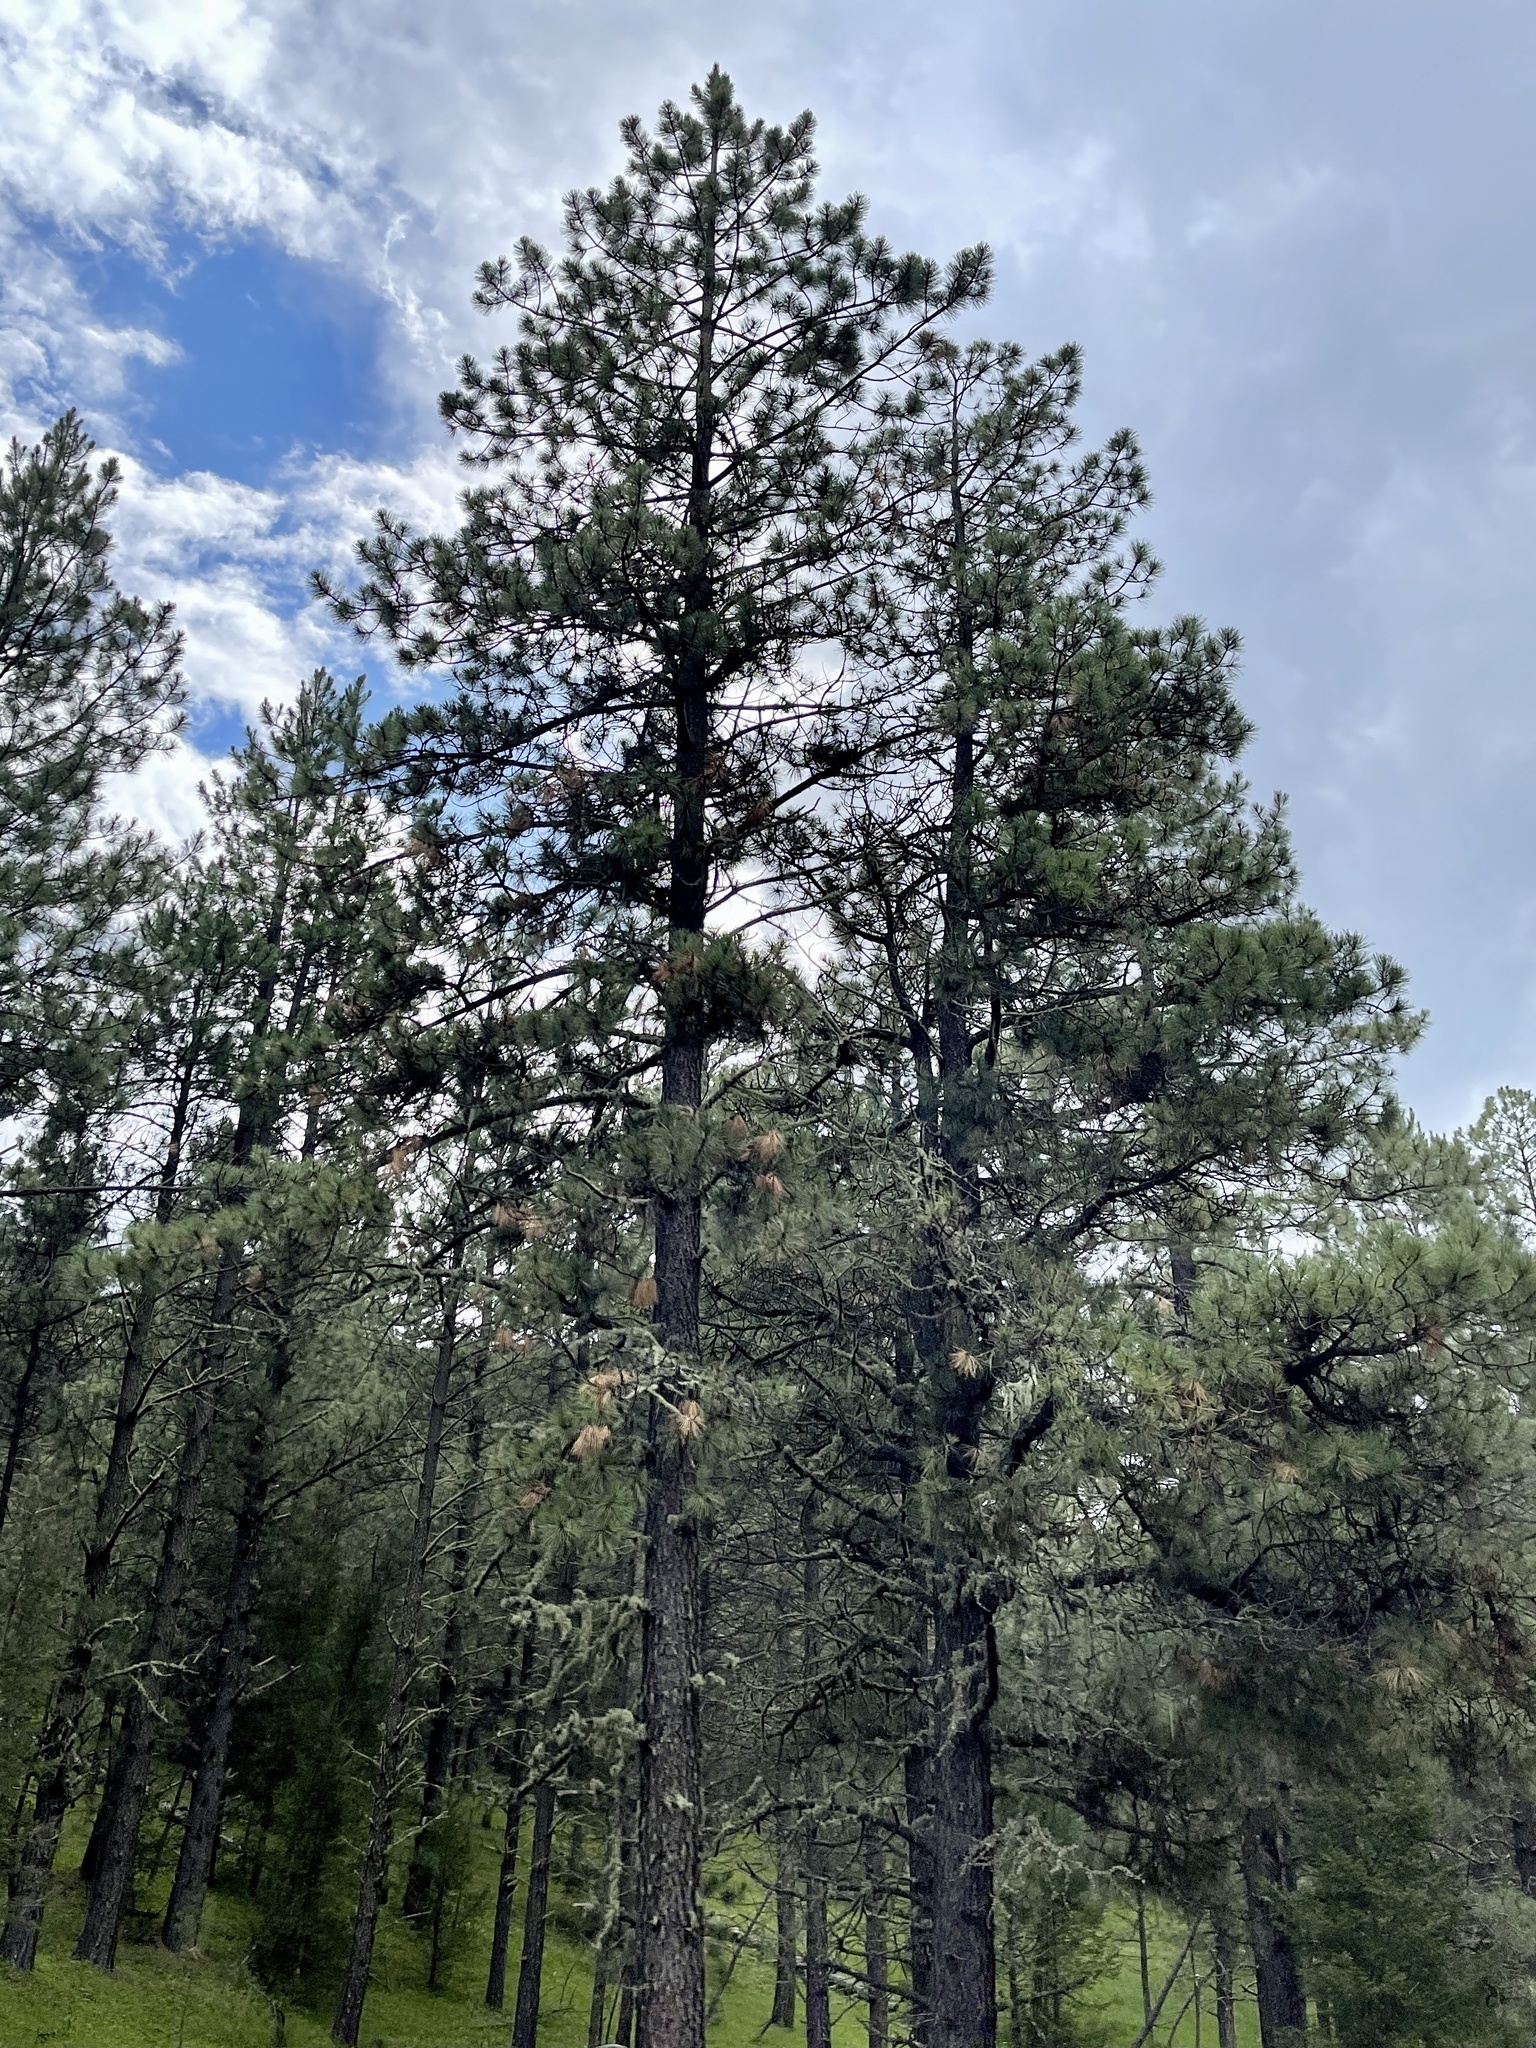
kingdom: Plantae
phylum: Tracheophyta
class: Pinopsida
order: Pinales
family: Pinaceae
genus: Pinus
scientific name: Pinus ponderosa
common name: Western yellow-pine
